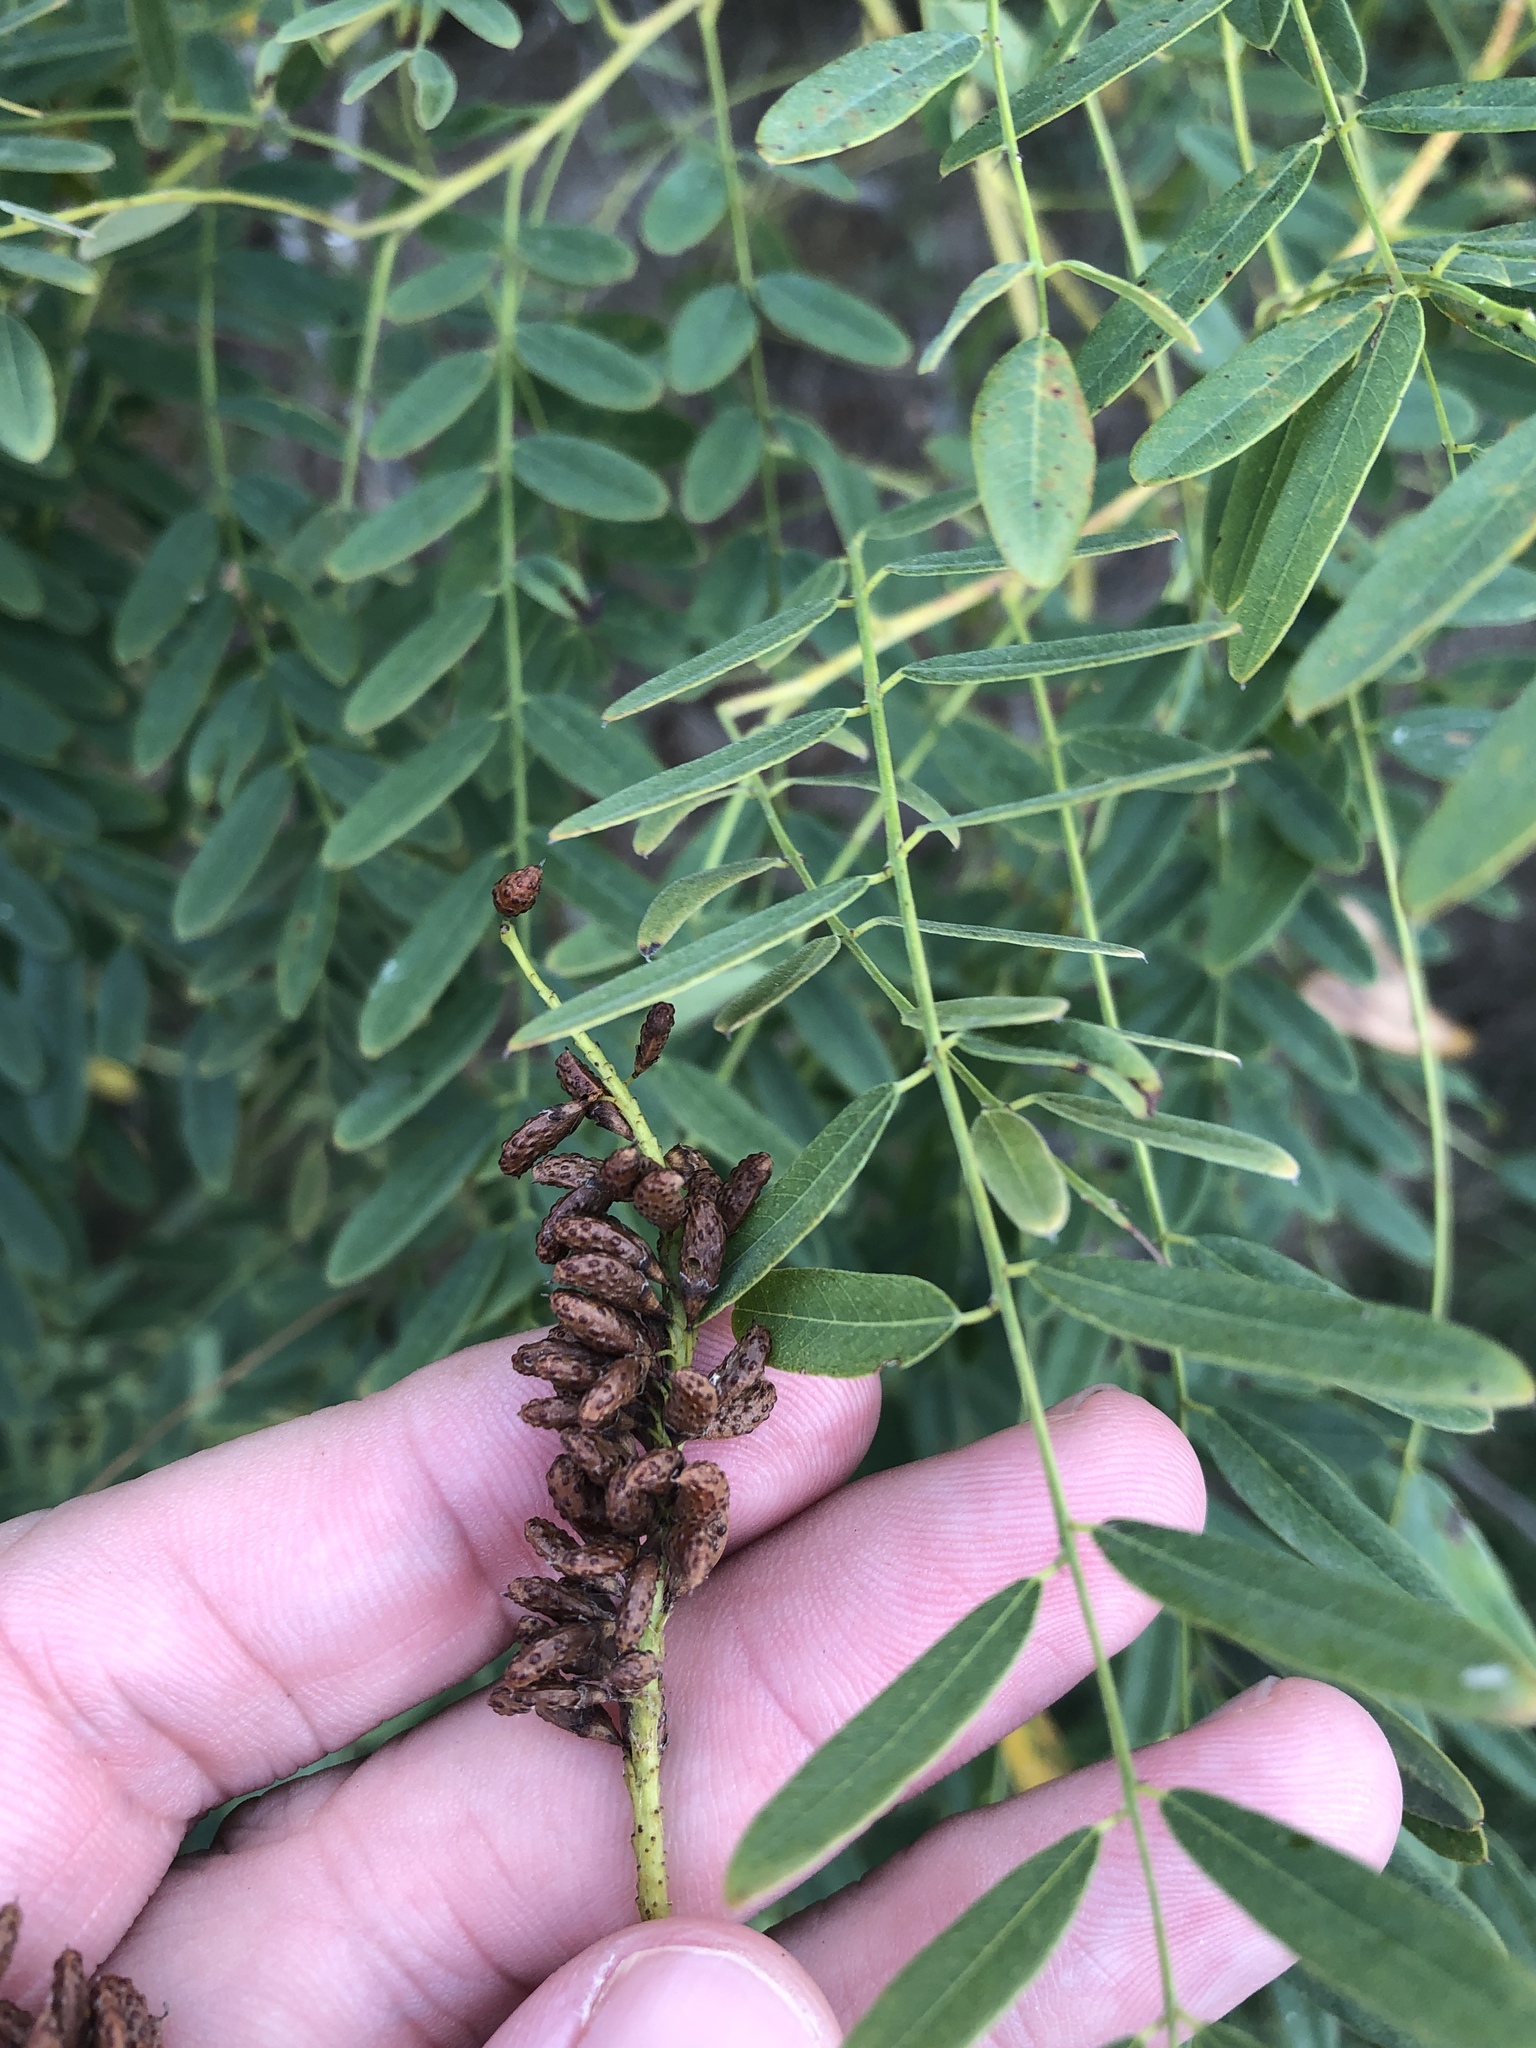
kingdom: Plantae
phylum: Tracheophyta
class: Magnoliopsida
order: Fabales
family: Fabaceae
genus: Amorpha
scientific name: Amorpha fruticosa
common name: False indigo
